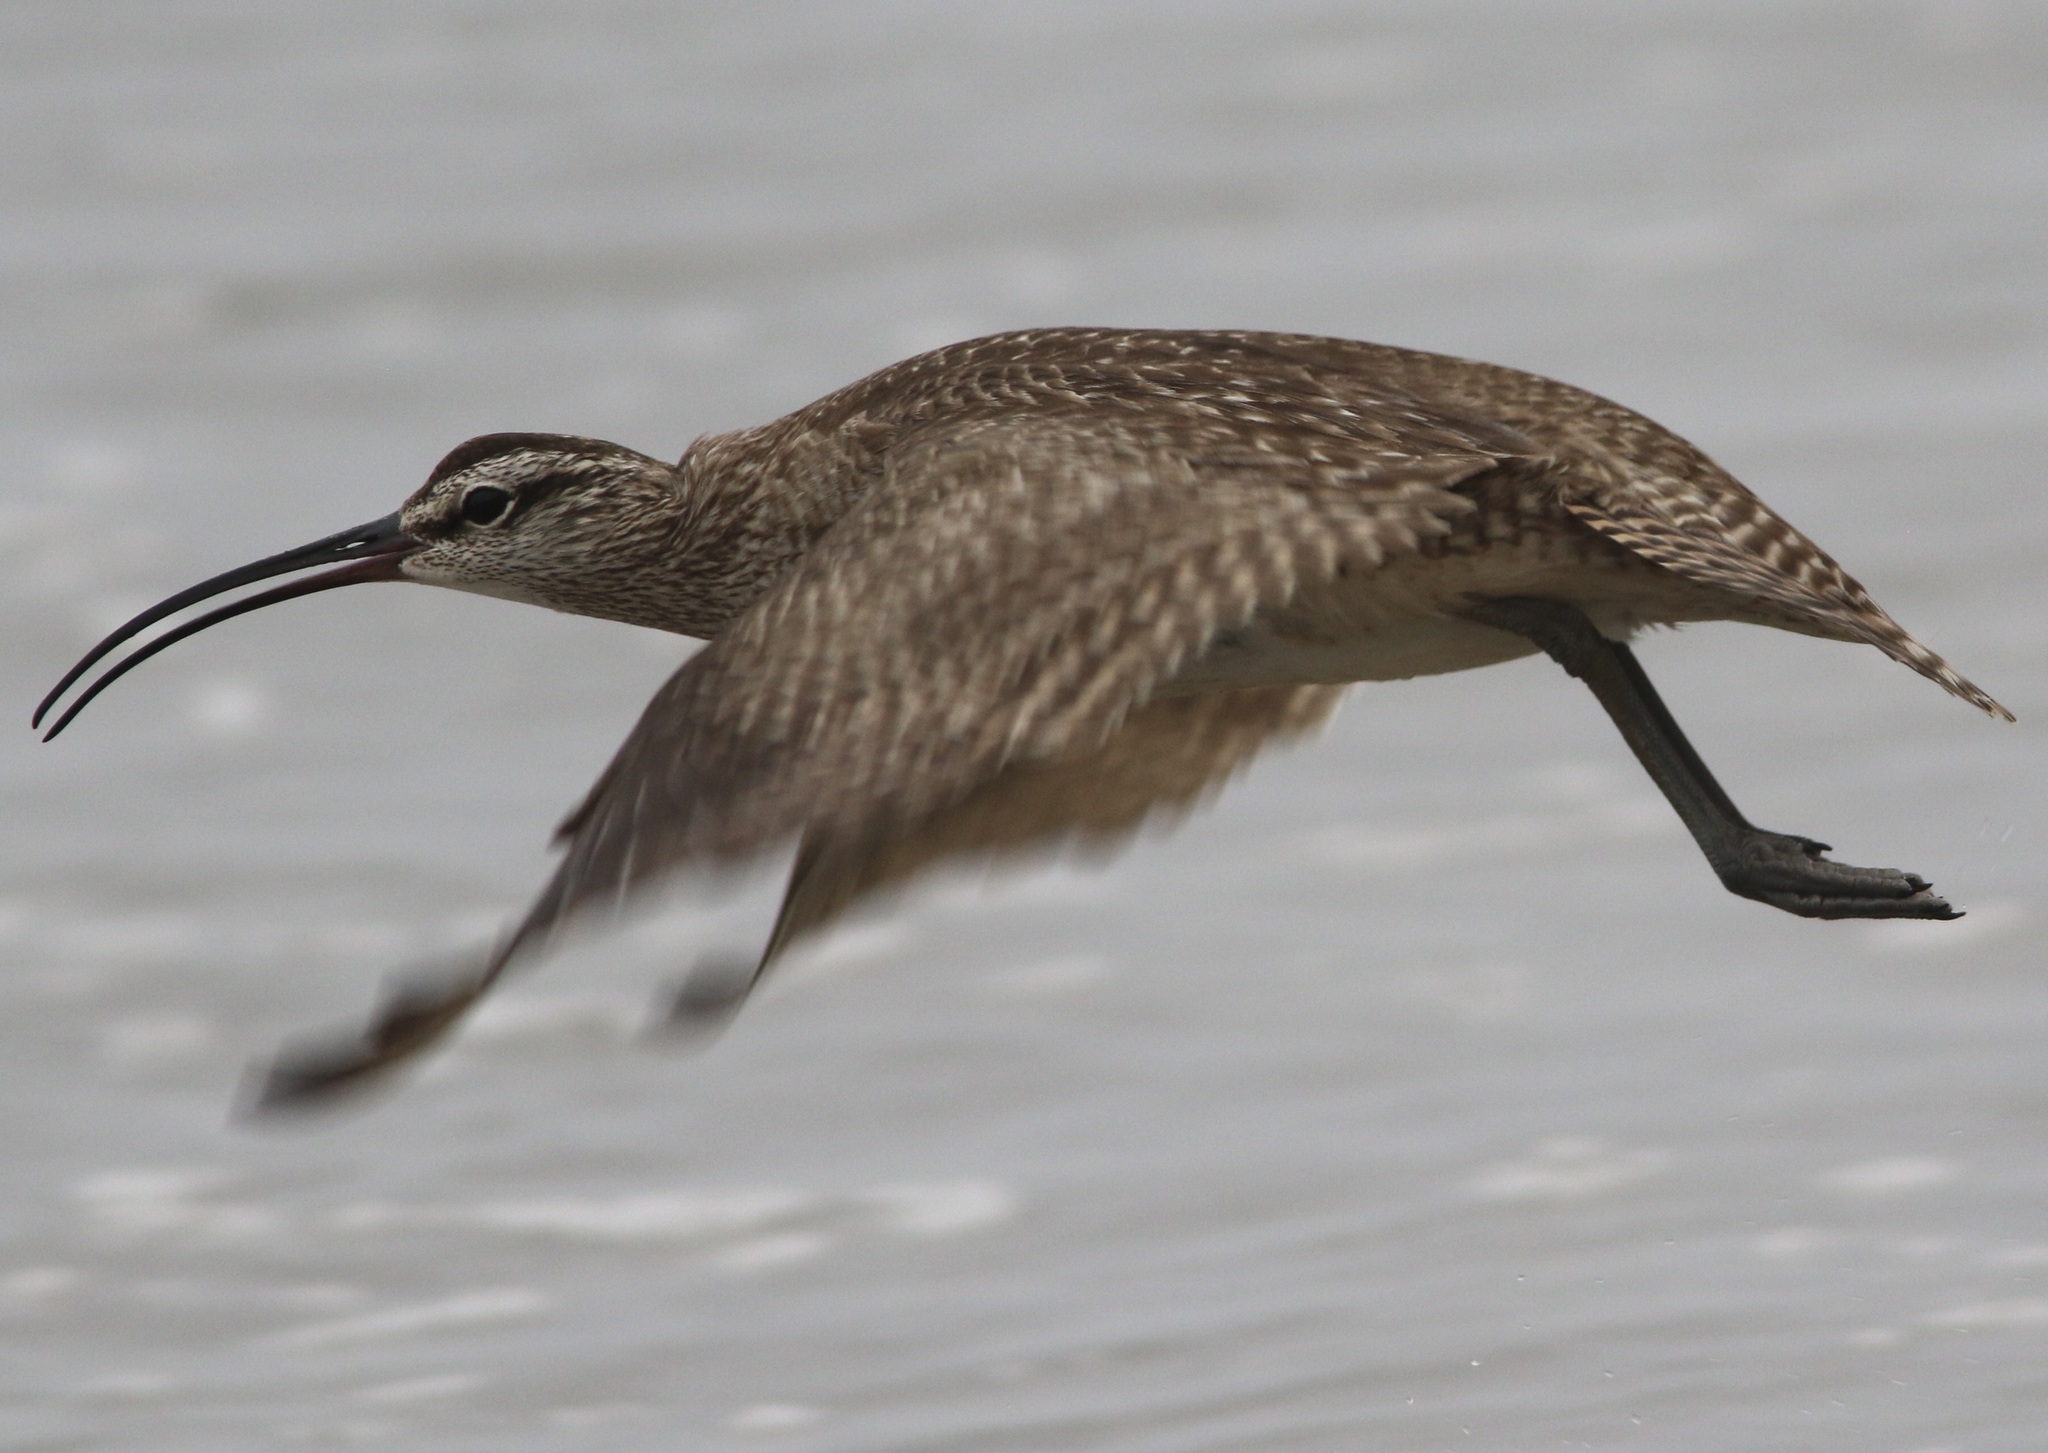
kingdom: Animalia
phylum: Chordata
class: Aves
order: Charadriiformes
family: Scolopacidae
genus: Numenius
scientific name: Numenius phaeopus
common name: Whimbrel
